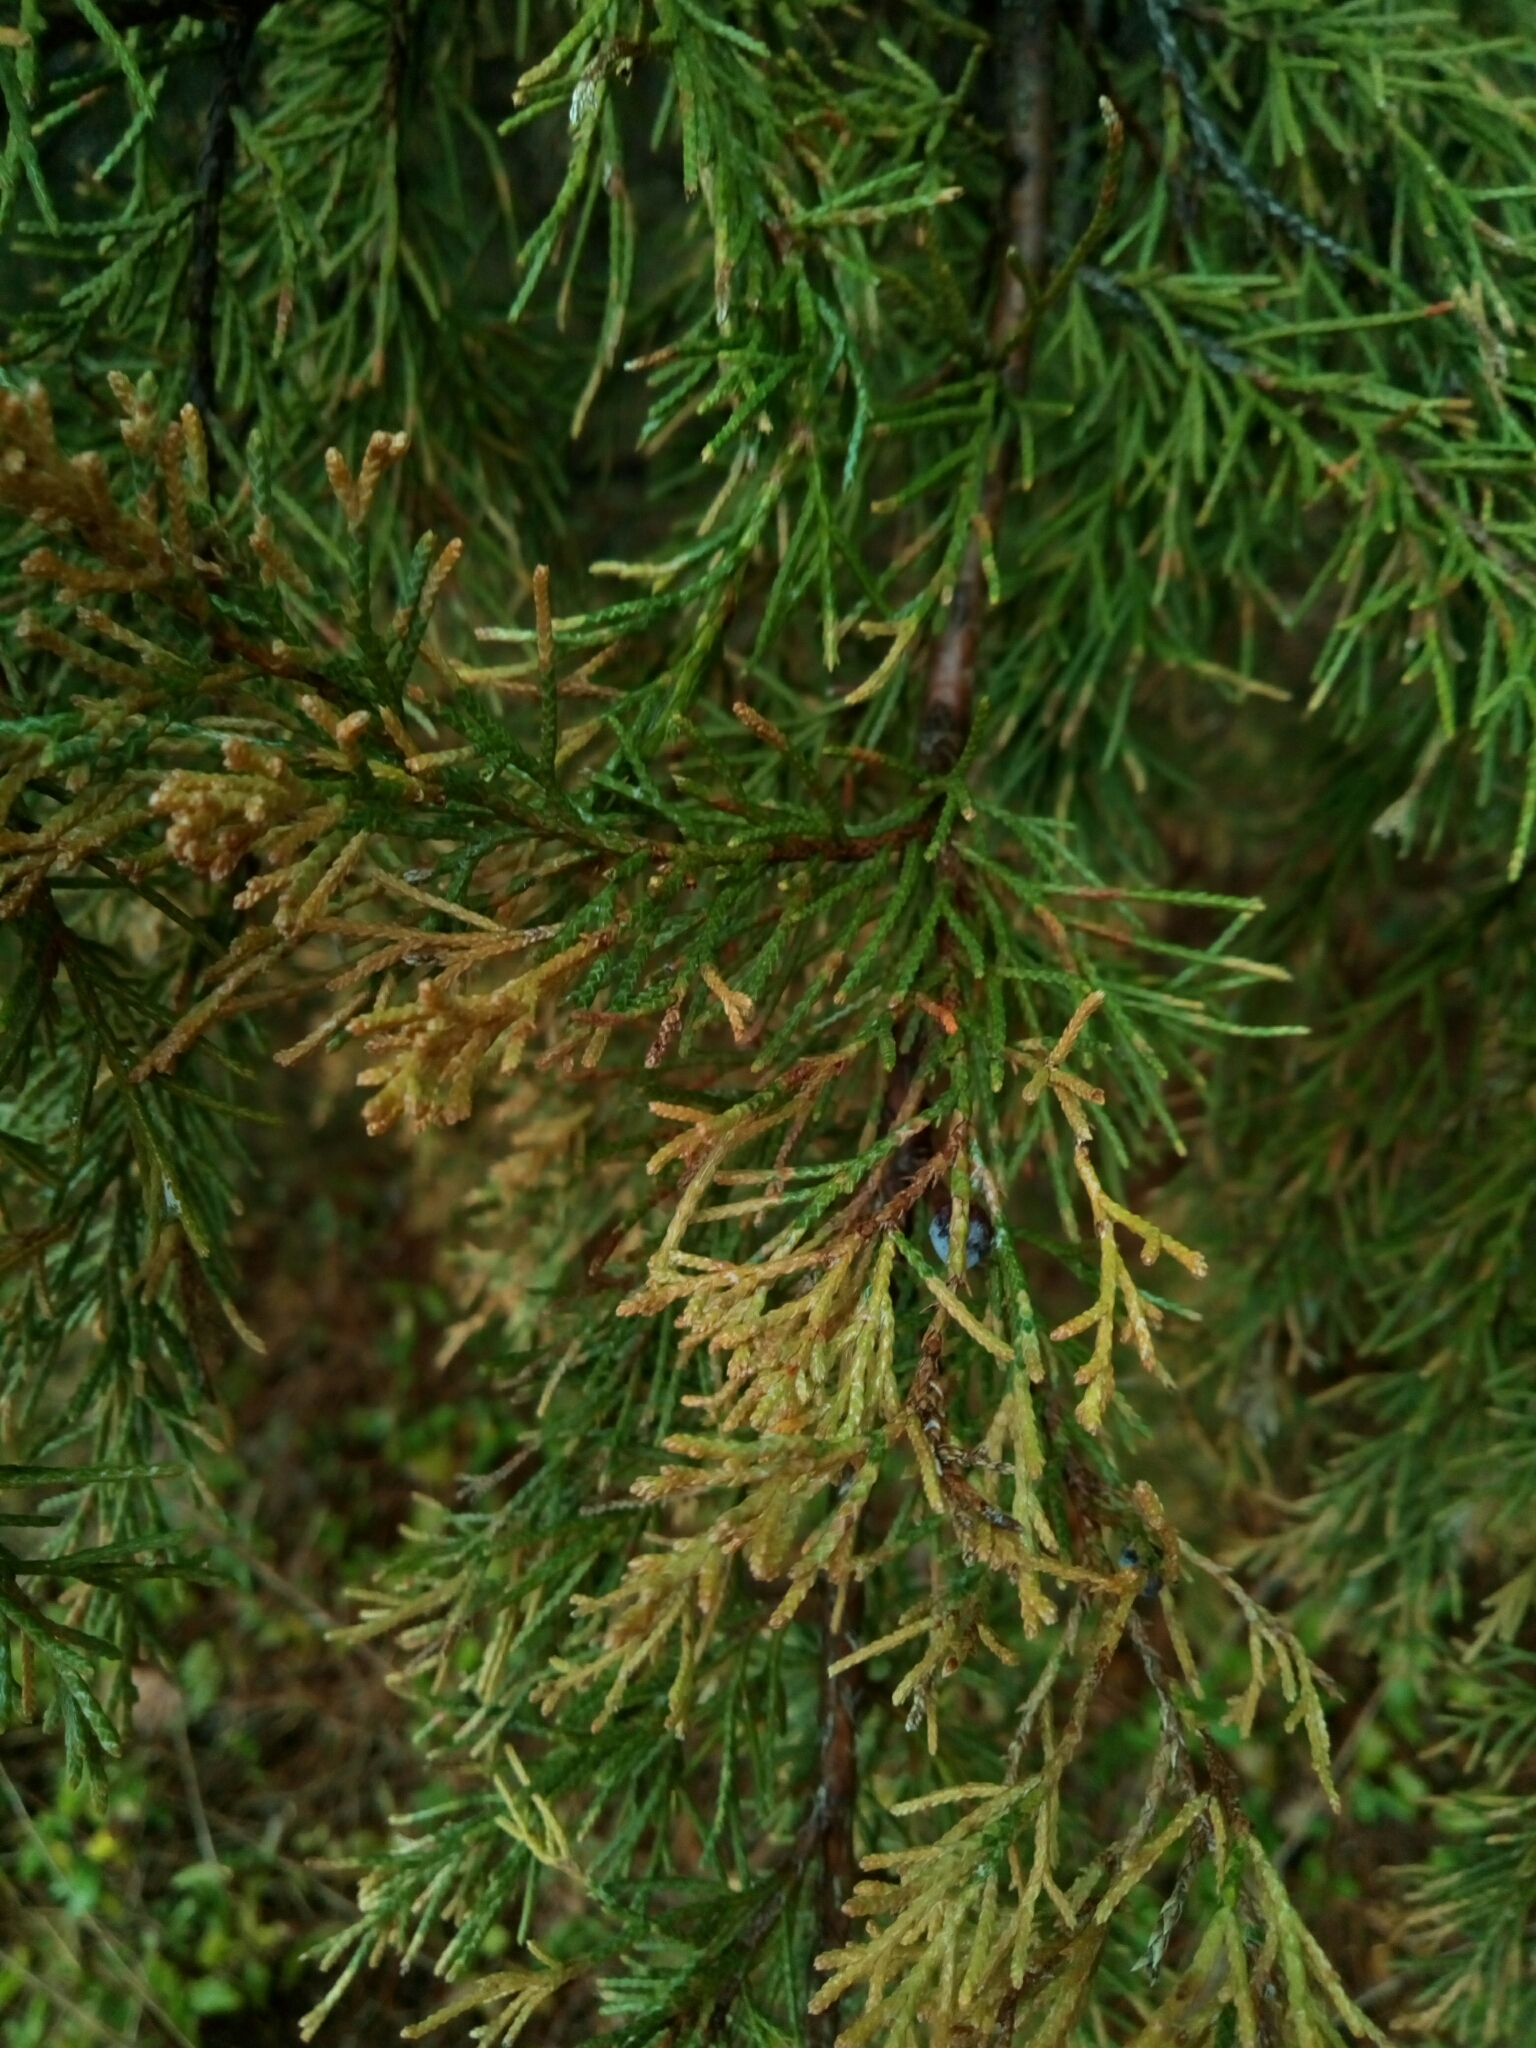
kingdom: Plantae
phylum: Tracheophyta
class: Pinopsida
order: Pinales
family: Cupressaceae
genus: Juniperus
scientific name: Juniperus virginiana
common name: Red juniper
